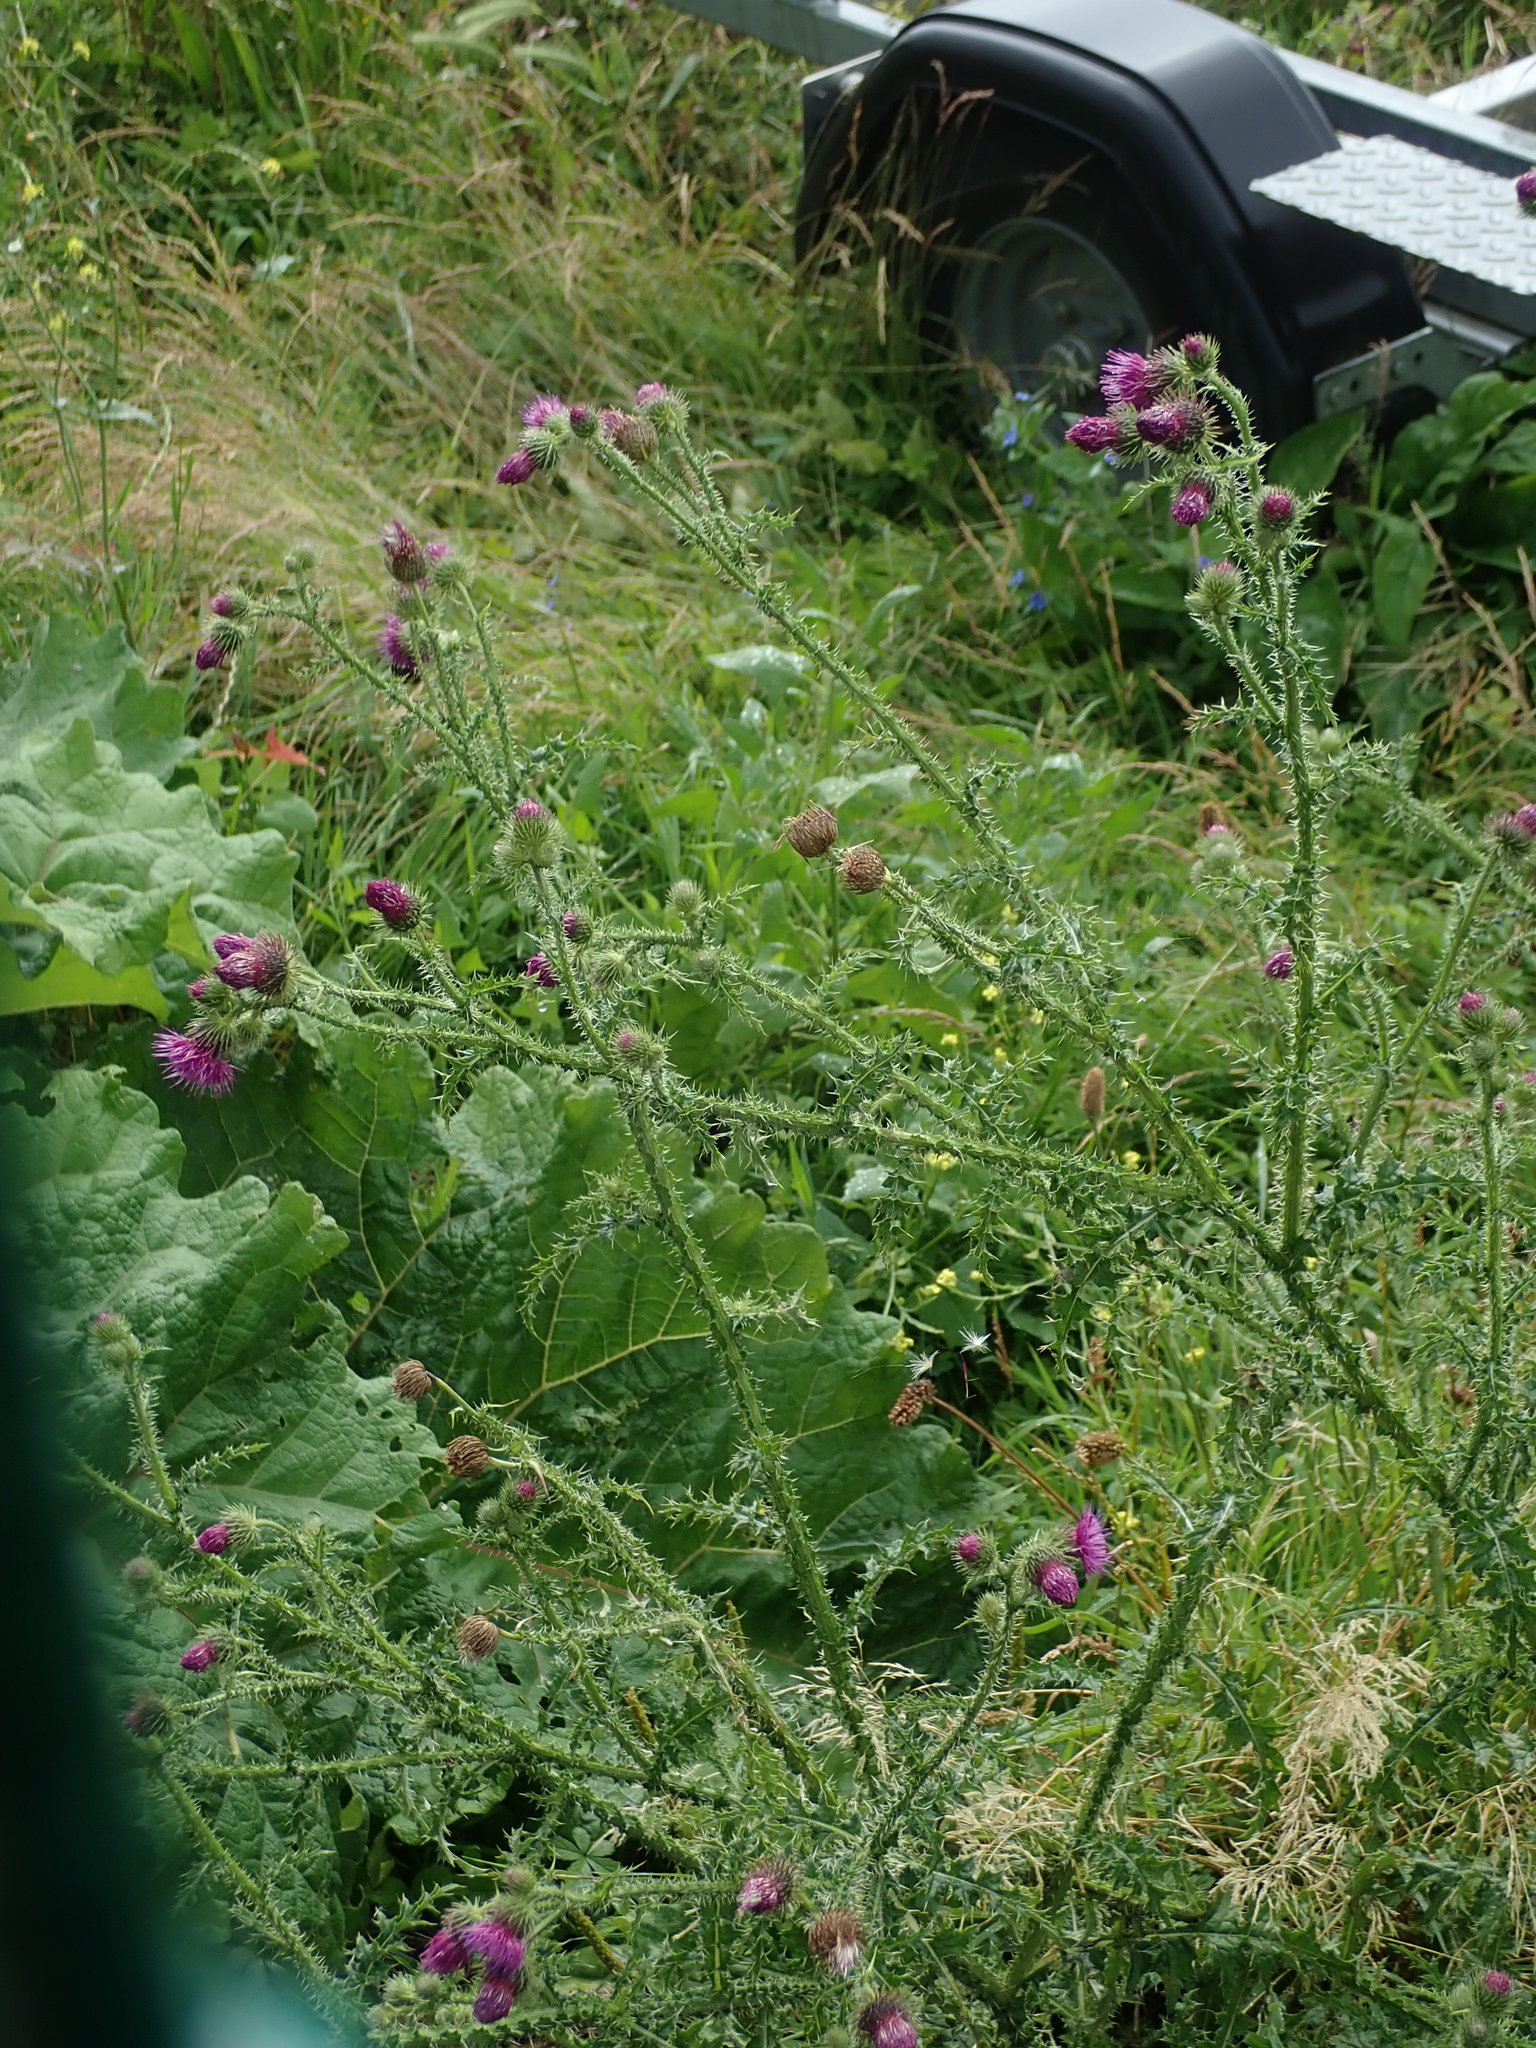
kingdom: Plantae
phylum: Tracheophyta
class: Magnoliopsida
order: Asterales
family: Asteraceae
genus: Carduus
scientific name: Carduus crispus
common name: Welted thistle
